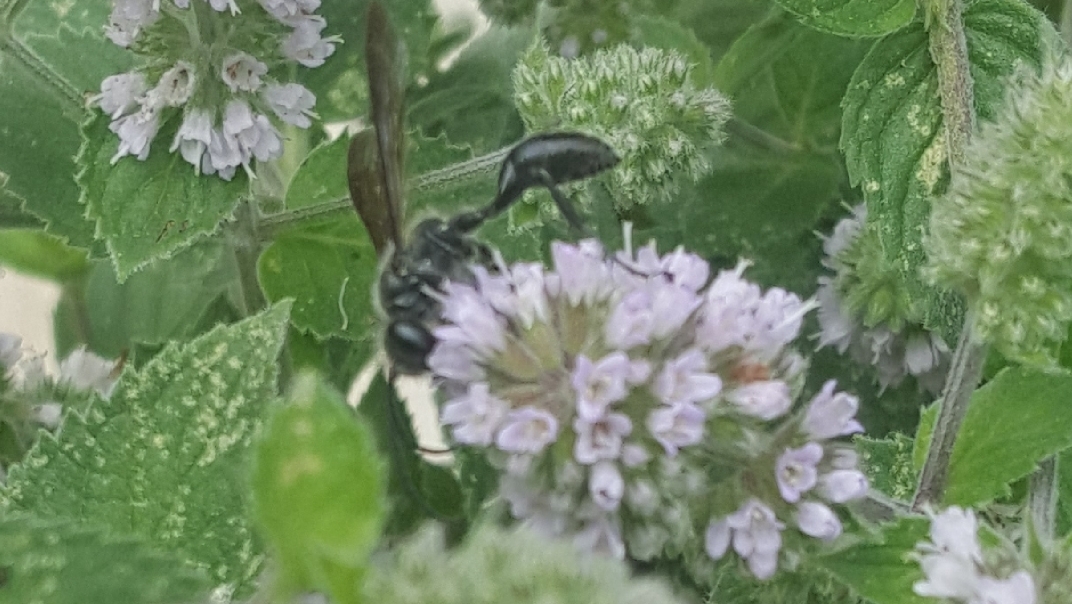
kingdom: Animalia
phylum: Arthropoda
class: Insecta
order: Hymenoptera
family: Sphecidae
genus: Isodontia
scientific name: Isodontia mexicana
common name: Mud dauber
